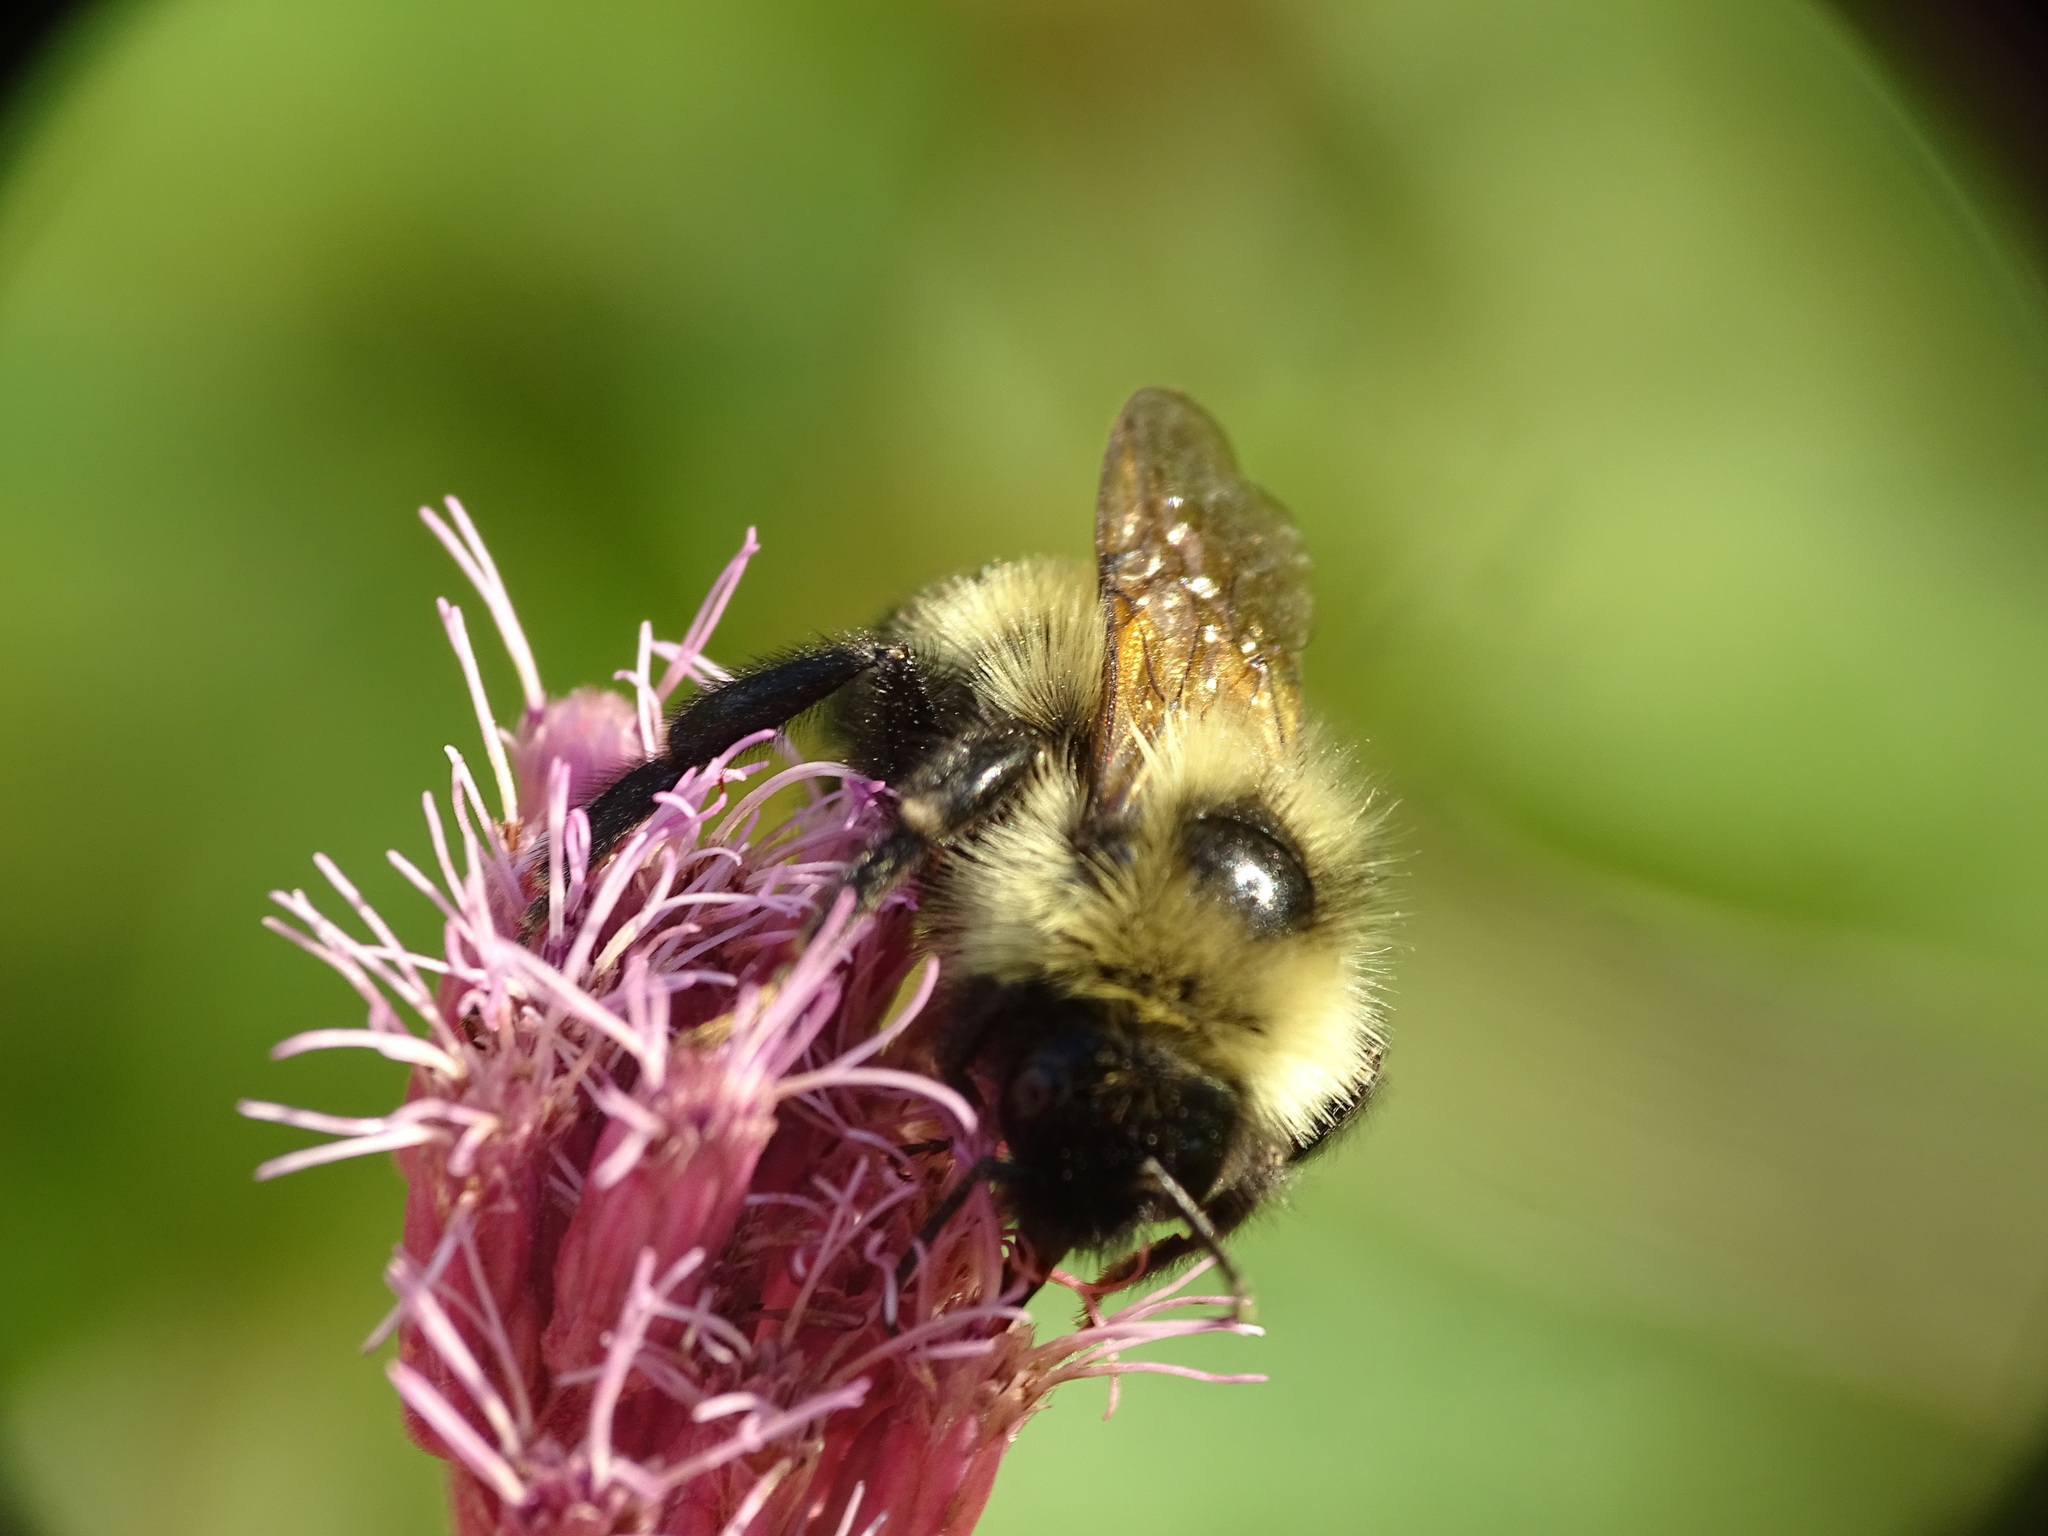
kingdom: Animalia
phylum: Arthropoda
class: Insecta
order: Hymenoptera
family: Apidae
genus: Bombus
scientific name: Bombus citrinus
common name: Lemon cuckoo bumble bee
